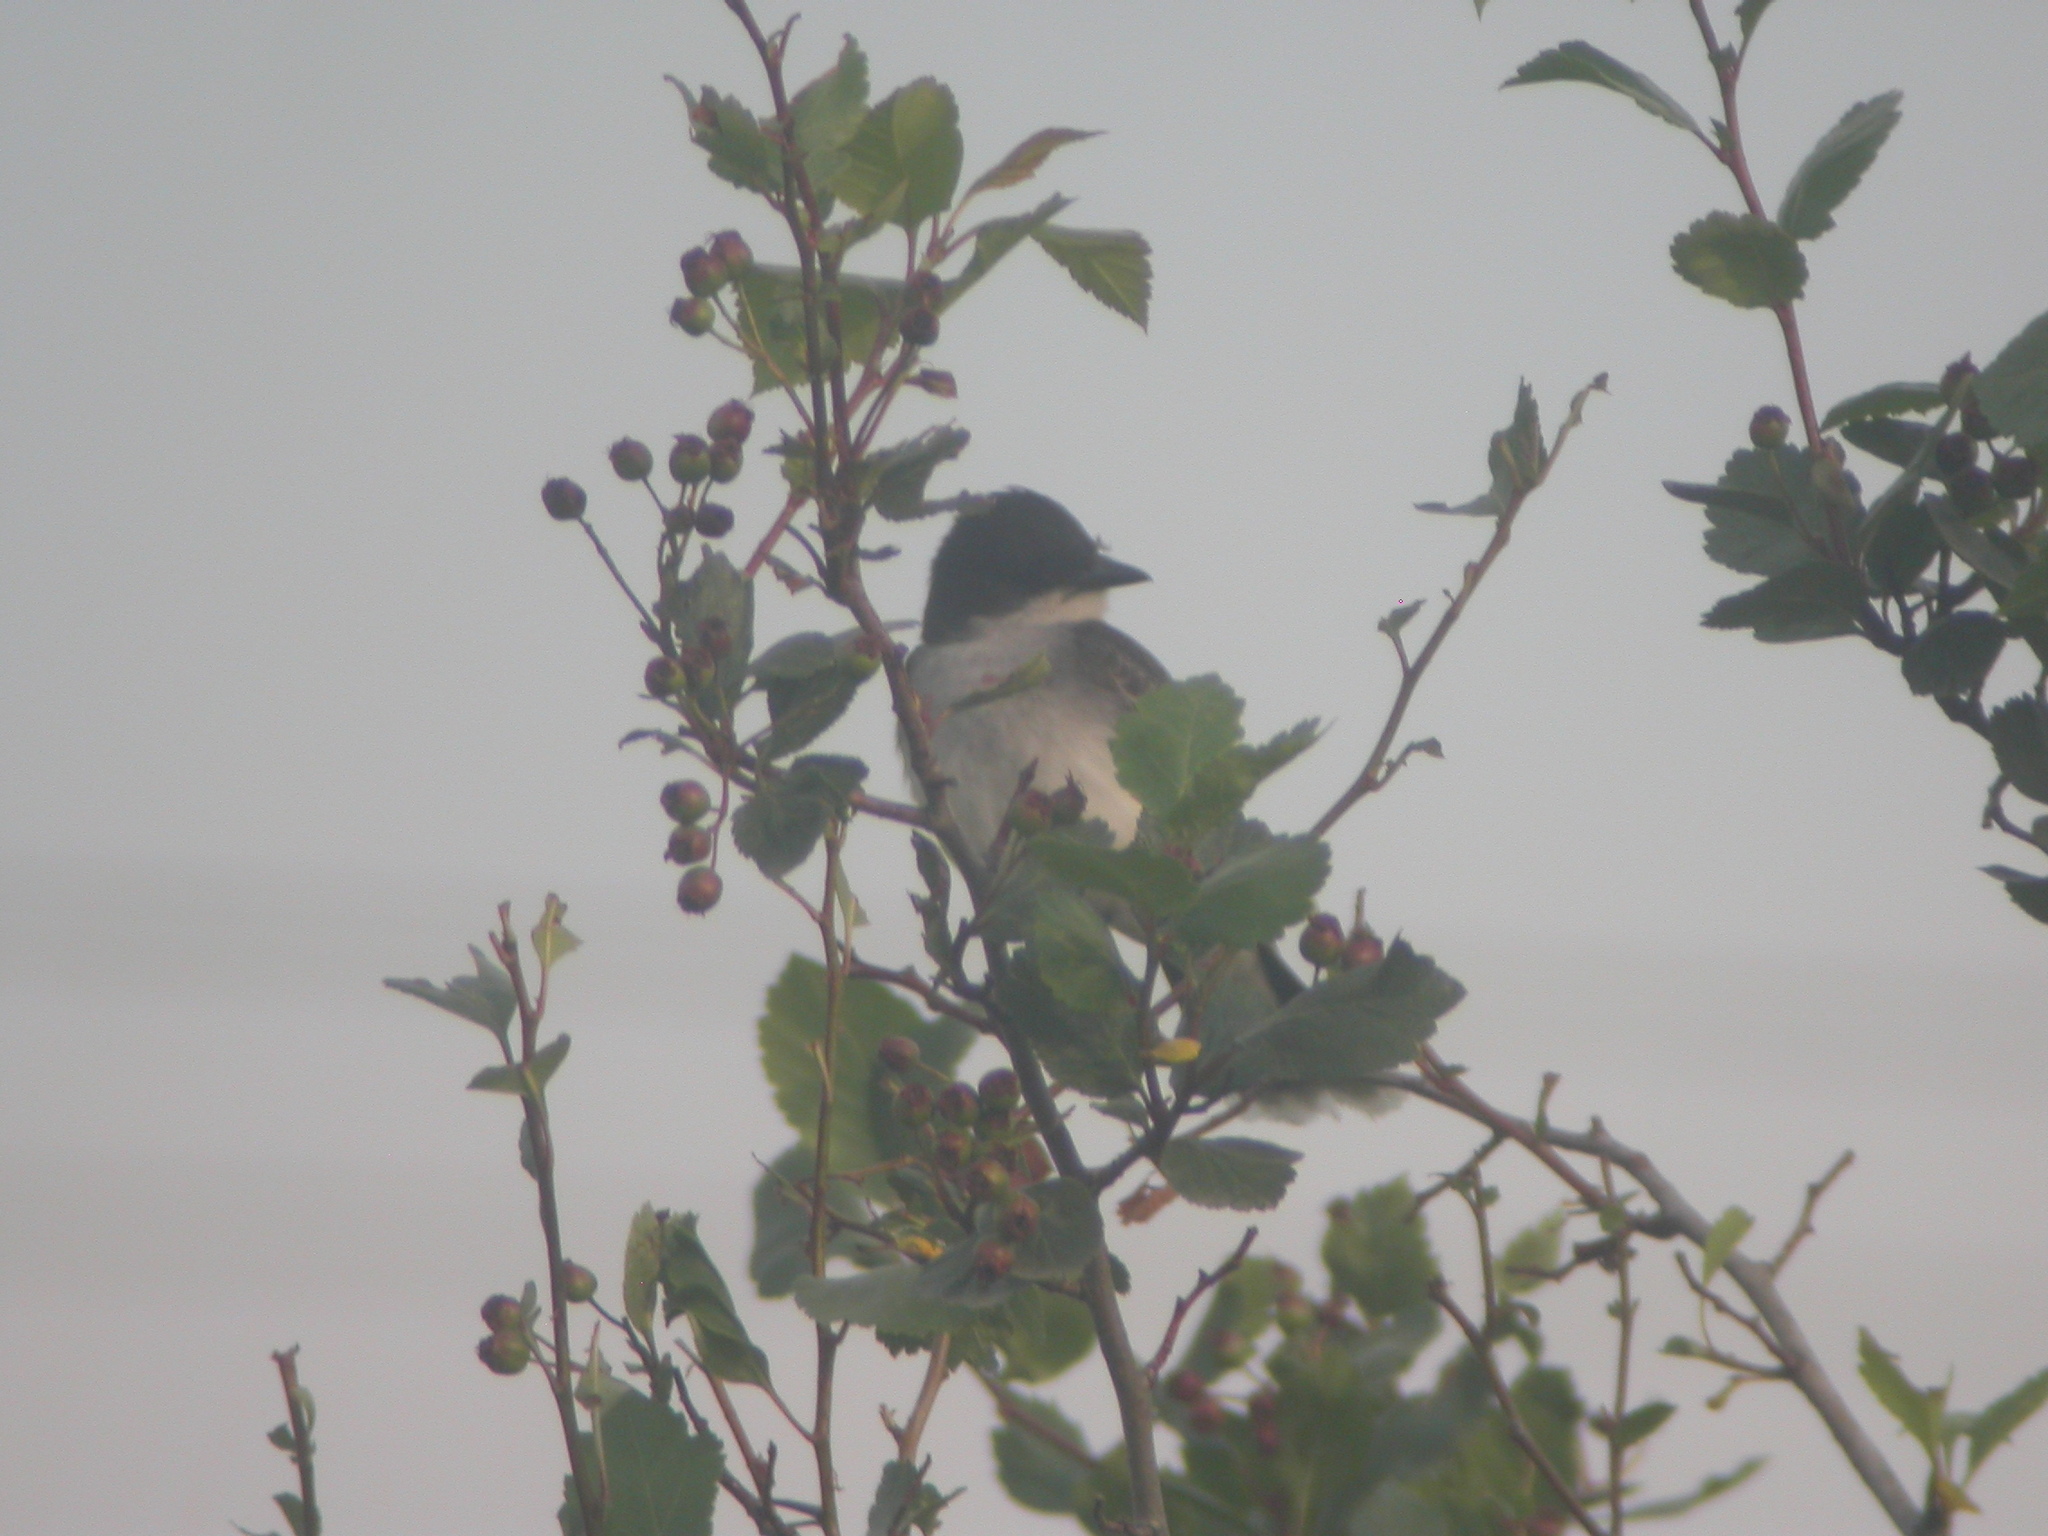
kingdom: Animalia
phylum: Chordata
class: Aves
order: Passeriformes
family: Tyrannidae
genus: Tyrannus
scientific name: Tyrannus tyrannus
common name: Eastern kingbird
